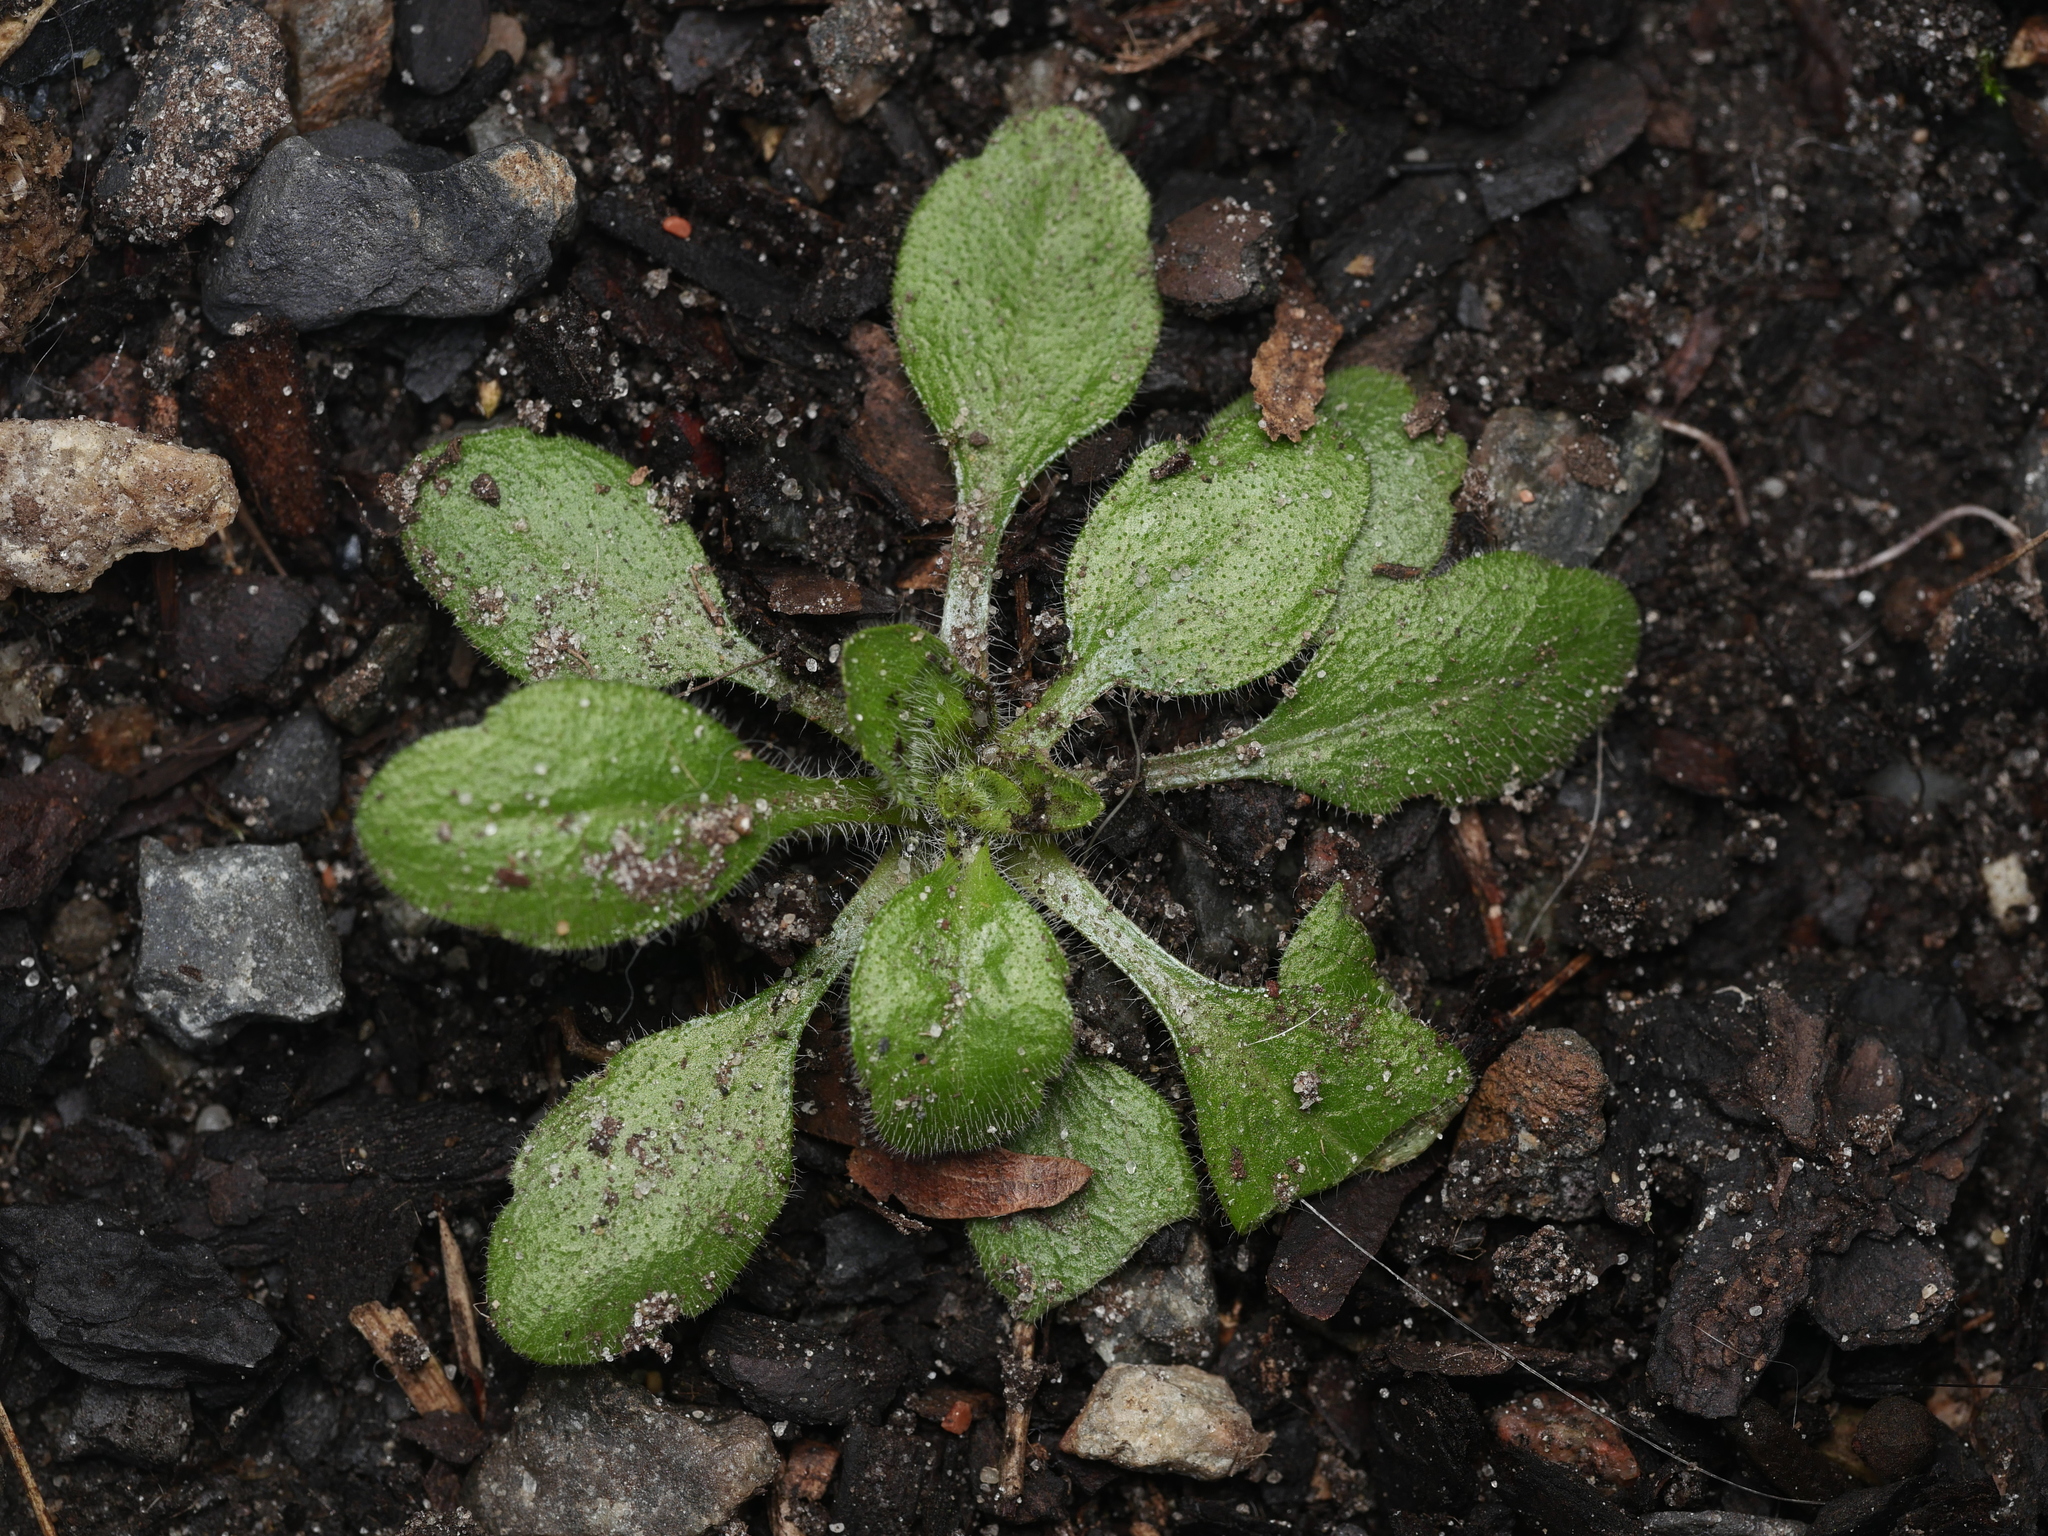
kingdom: Plantae
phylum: Tracheophyta
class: Magnoliopsida
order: Asterales
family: Asteraceae
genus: Erigeron
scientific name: Erigeron canadensis
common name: Canadian fleabane
